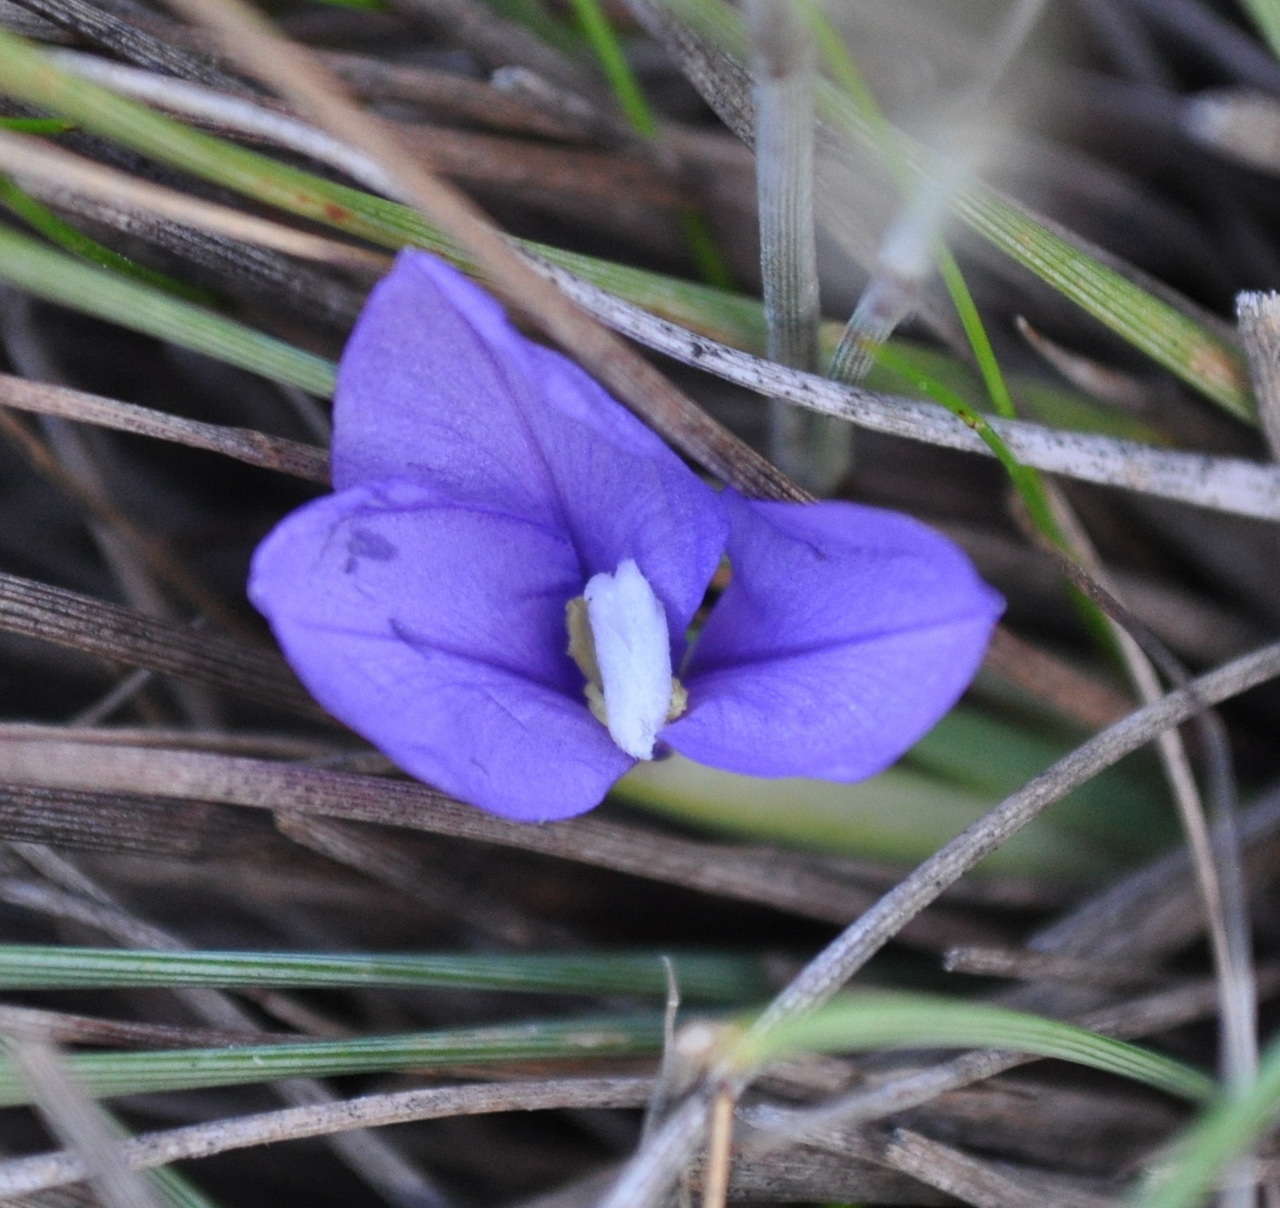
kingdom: Plantae
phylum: Tracheophyta
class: Liliopsida
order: Asparagales
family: Iridaceae
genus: Patersonia
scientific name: Patersonia fragilis
